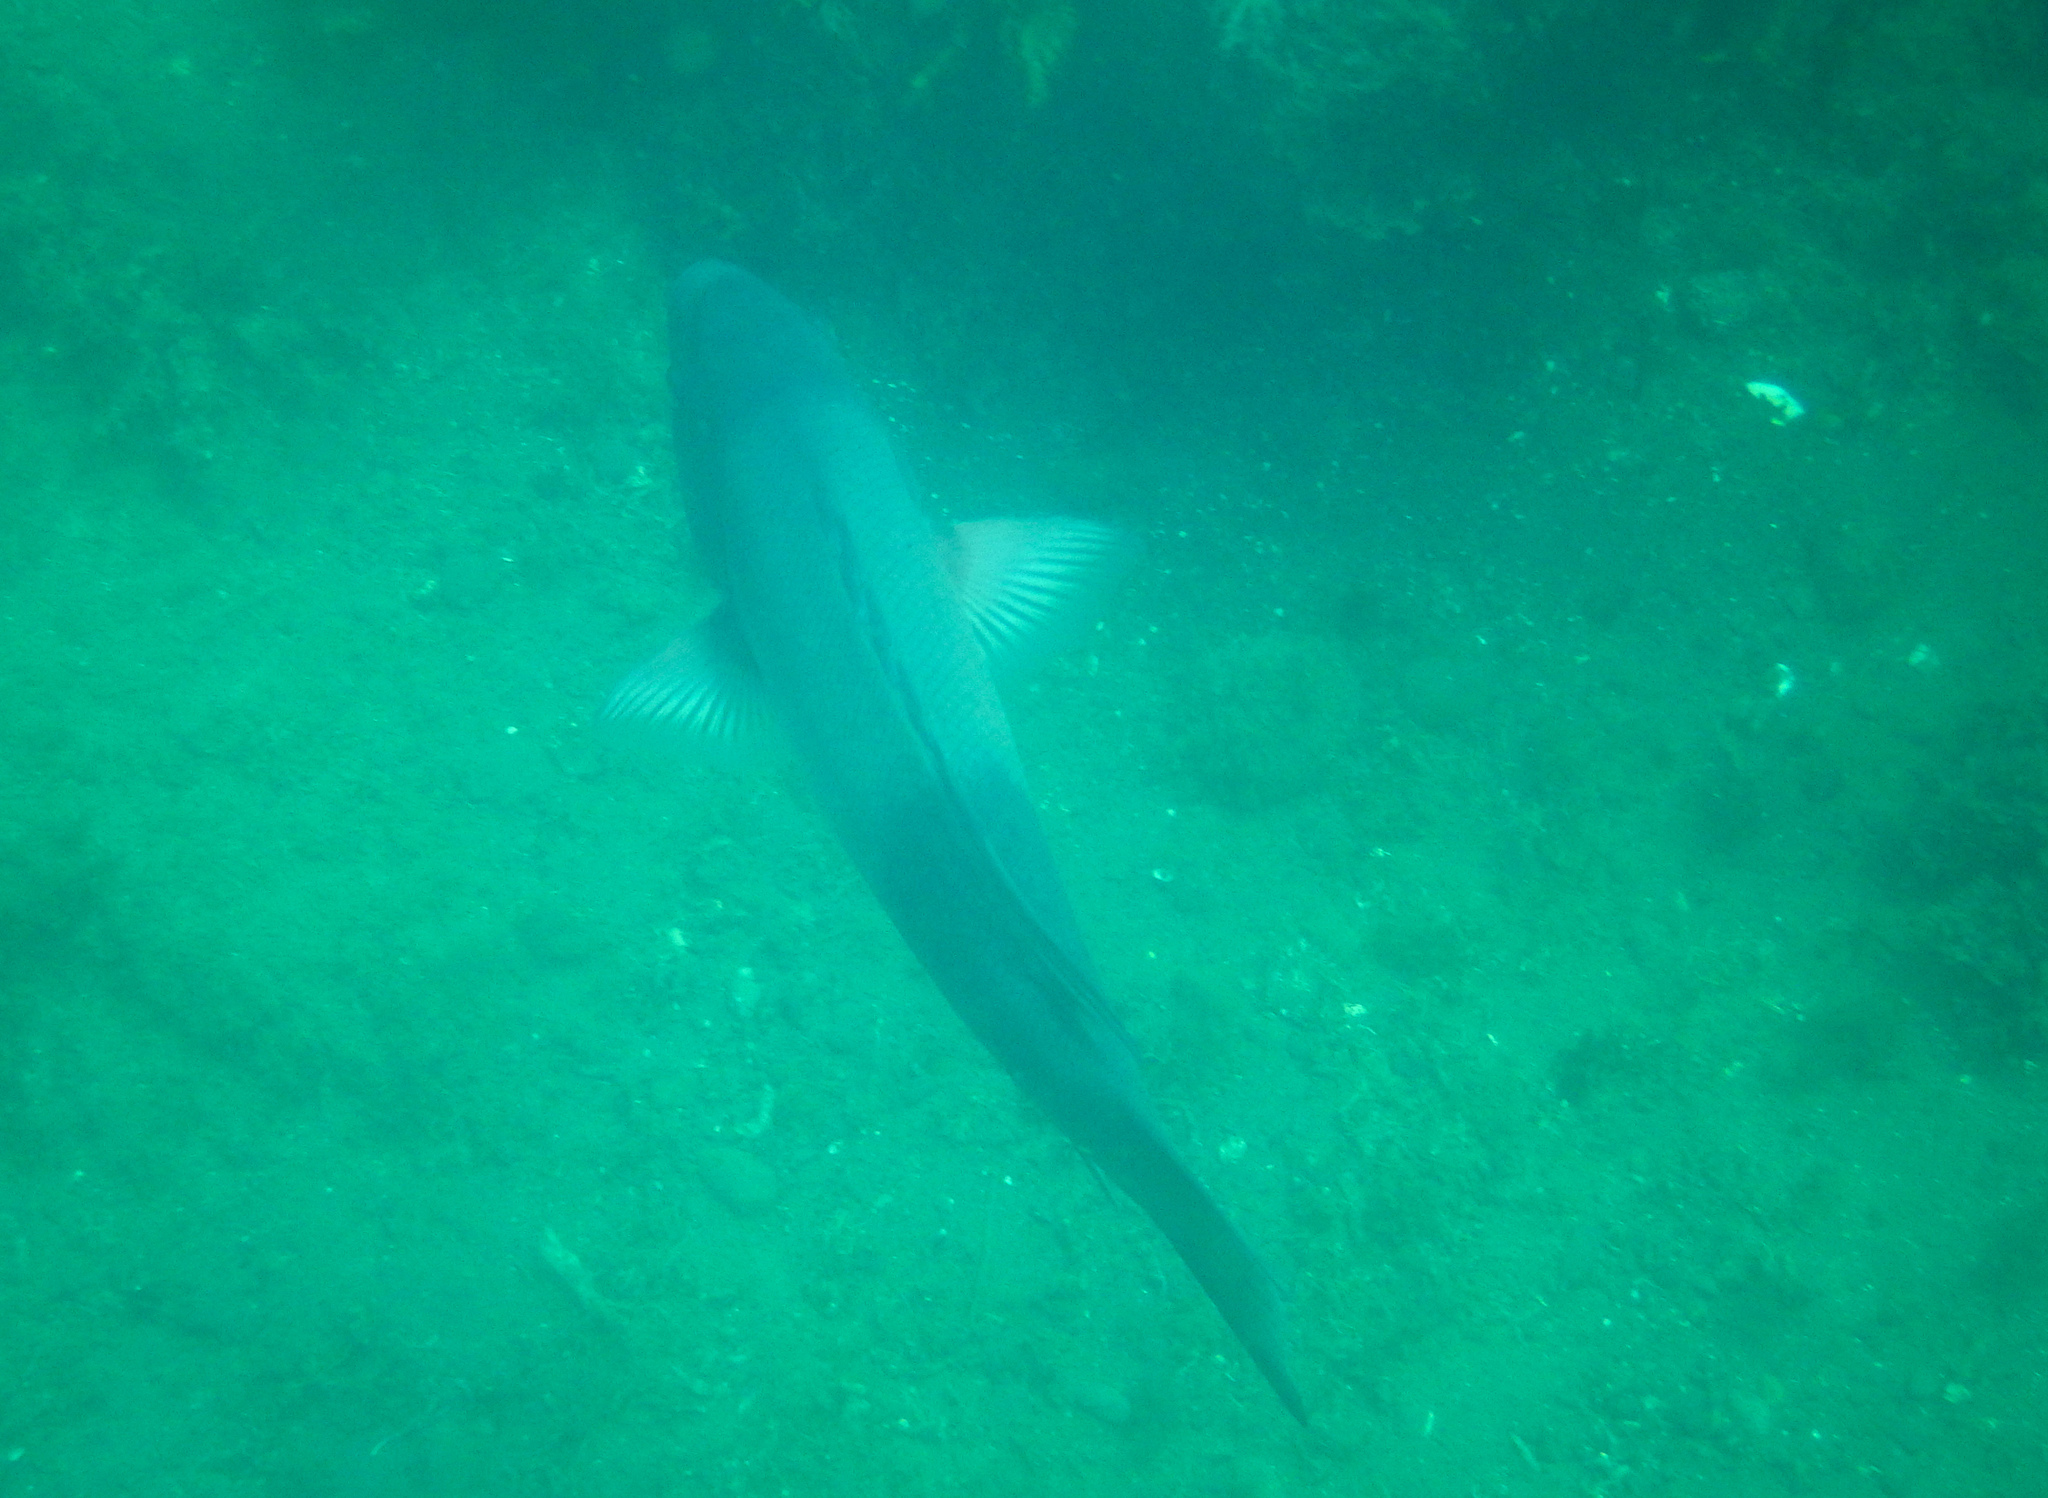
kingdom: Animalia
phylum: Chordata
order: Perciformes
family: Labridae
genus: Semicossyphus
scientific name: Semicossyphus pulcher
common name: California sheephead
